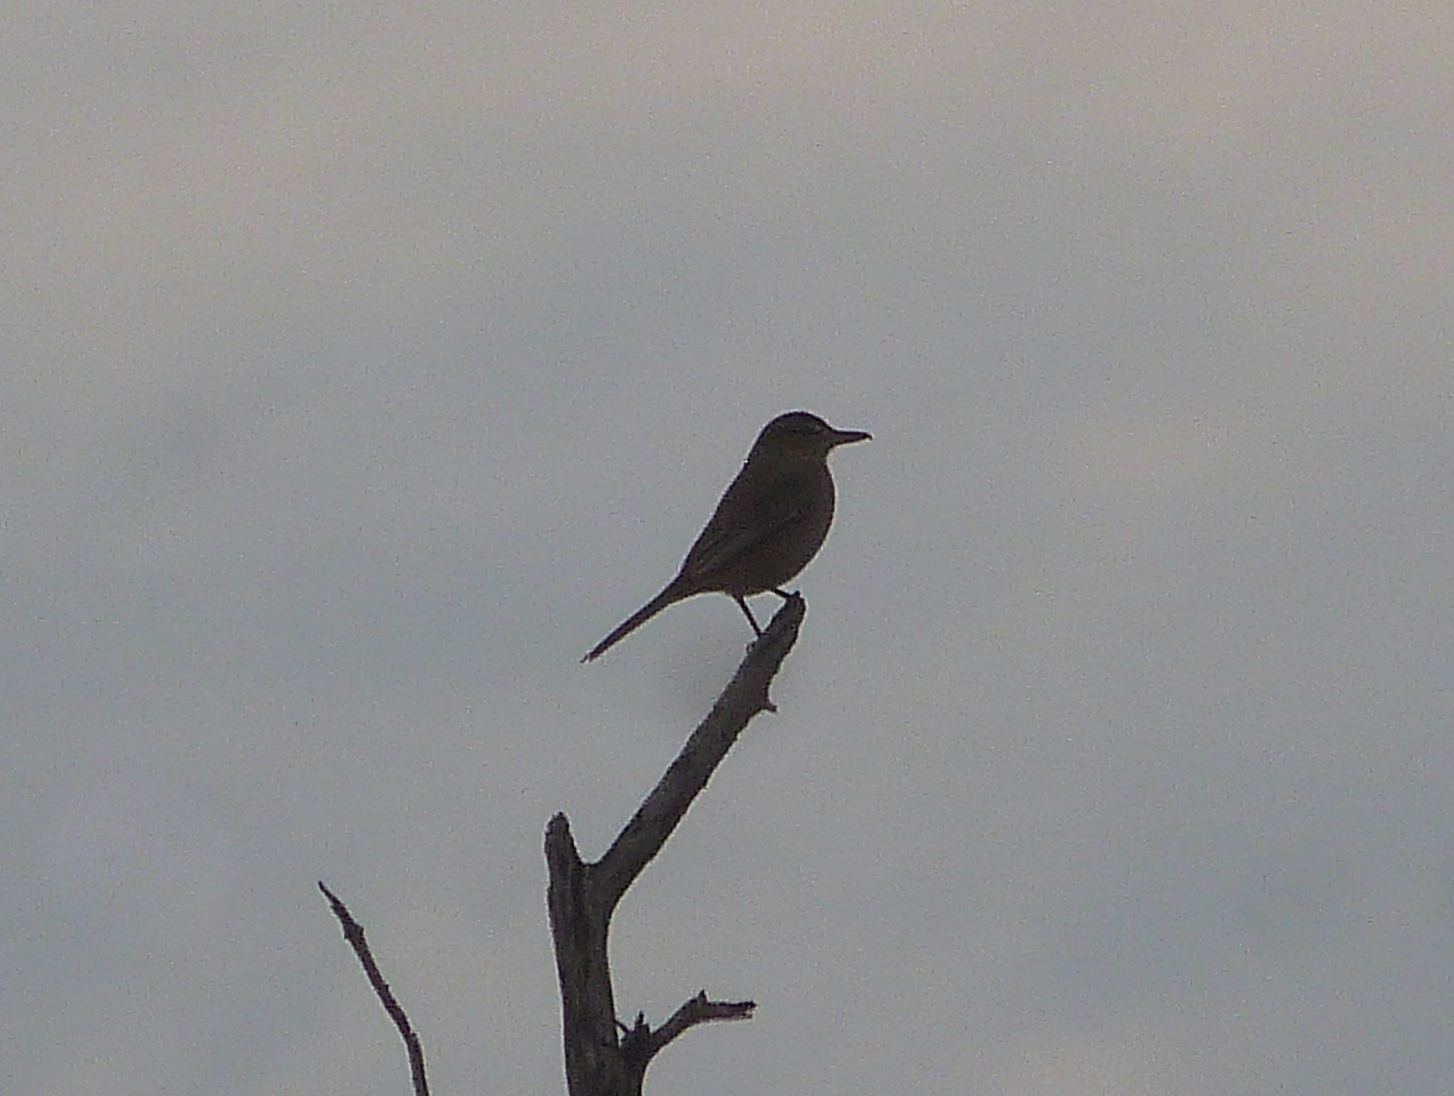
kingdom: Animalia
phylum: Chordata
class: Aves
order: Passeriformes
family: Tyrannidae
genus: Agriornis
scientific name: Agriornis micropterus
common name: Grey-bellied shrike-tyrant
